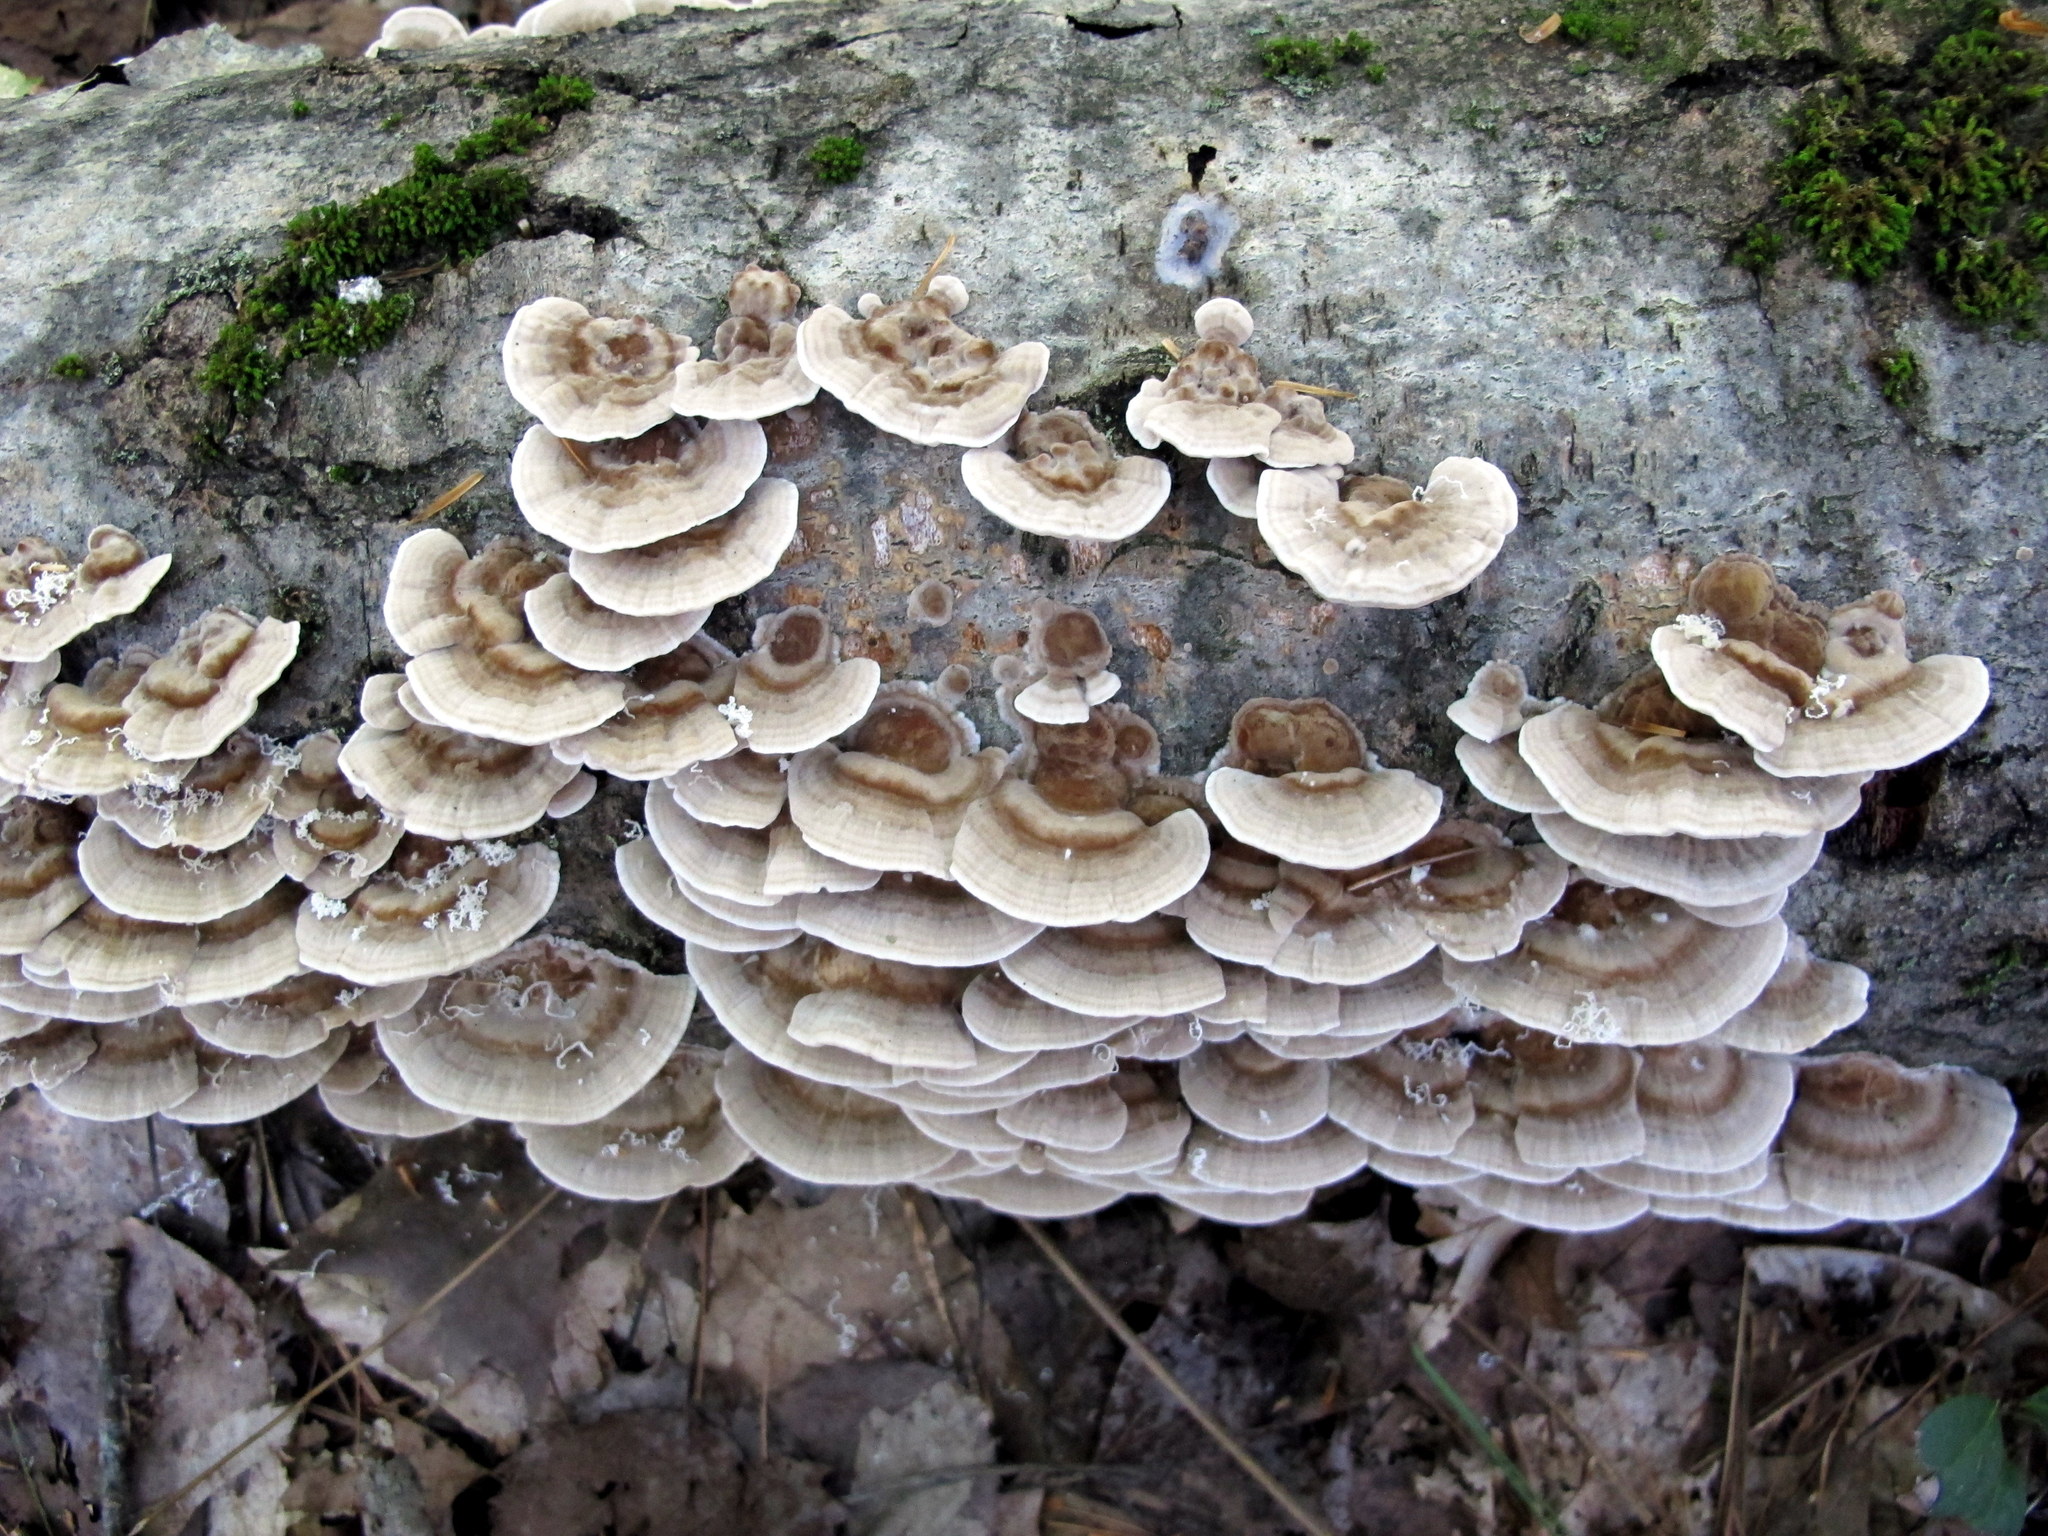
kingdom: Fungi
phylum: Basidiomycota
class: Agaricomycetes
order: Polyporales
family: Polyporaceae
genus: Trametes
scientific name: Trametes hirsuta
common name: Hairy bracket
